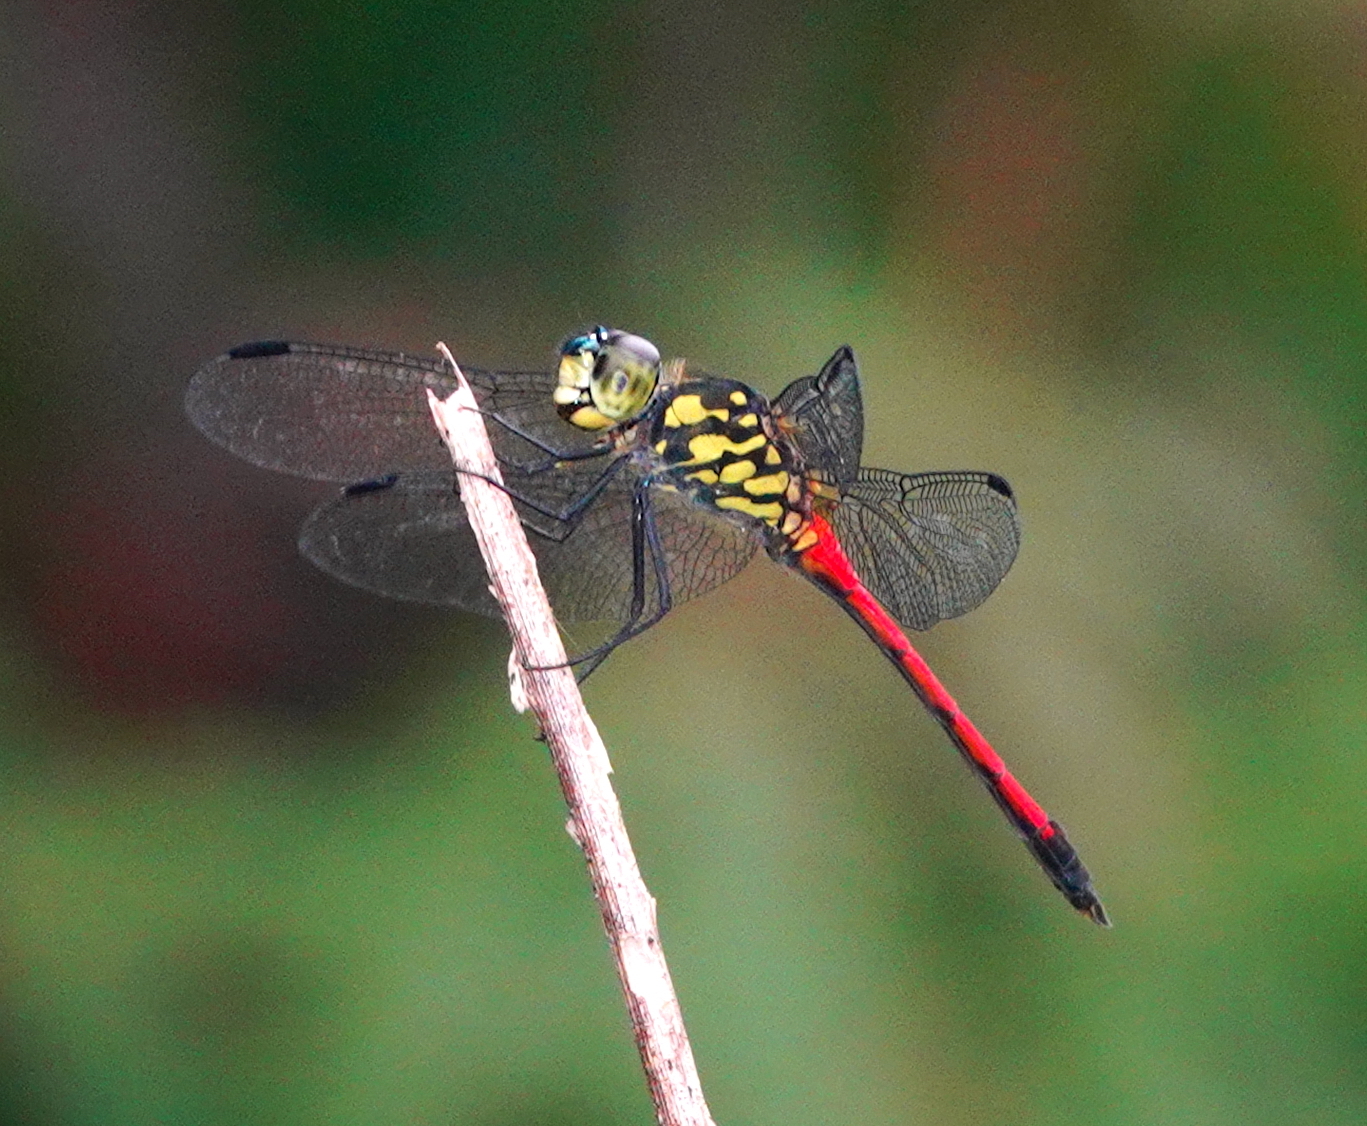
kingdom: Animalia
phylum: Arthropoda
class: Insecta
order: Odonata
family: Libellulidae
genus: Agrionoptera
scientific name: Agrionoptera insignis
